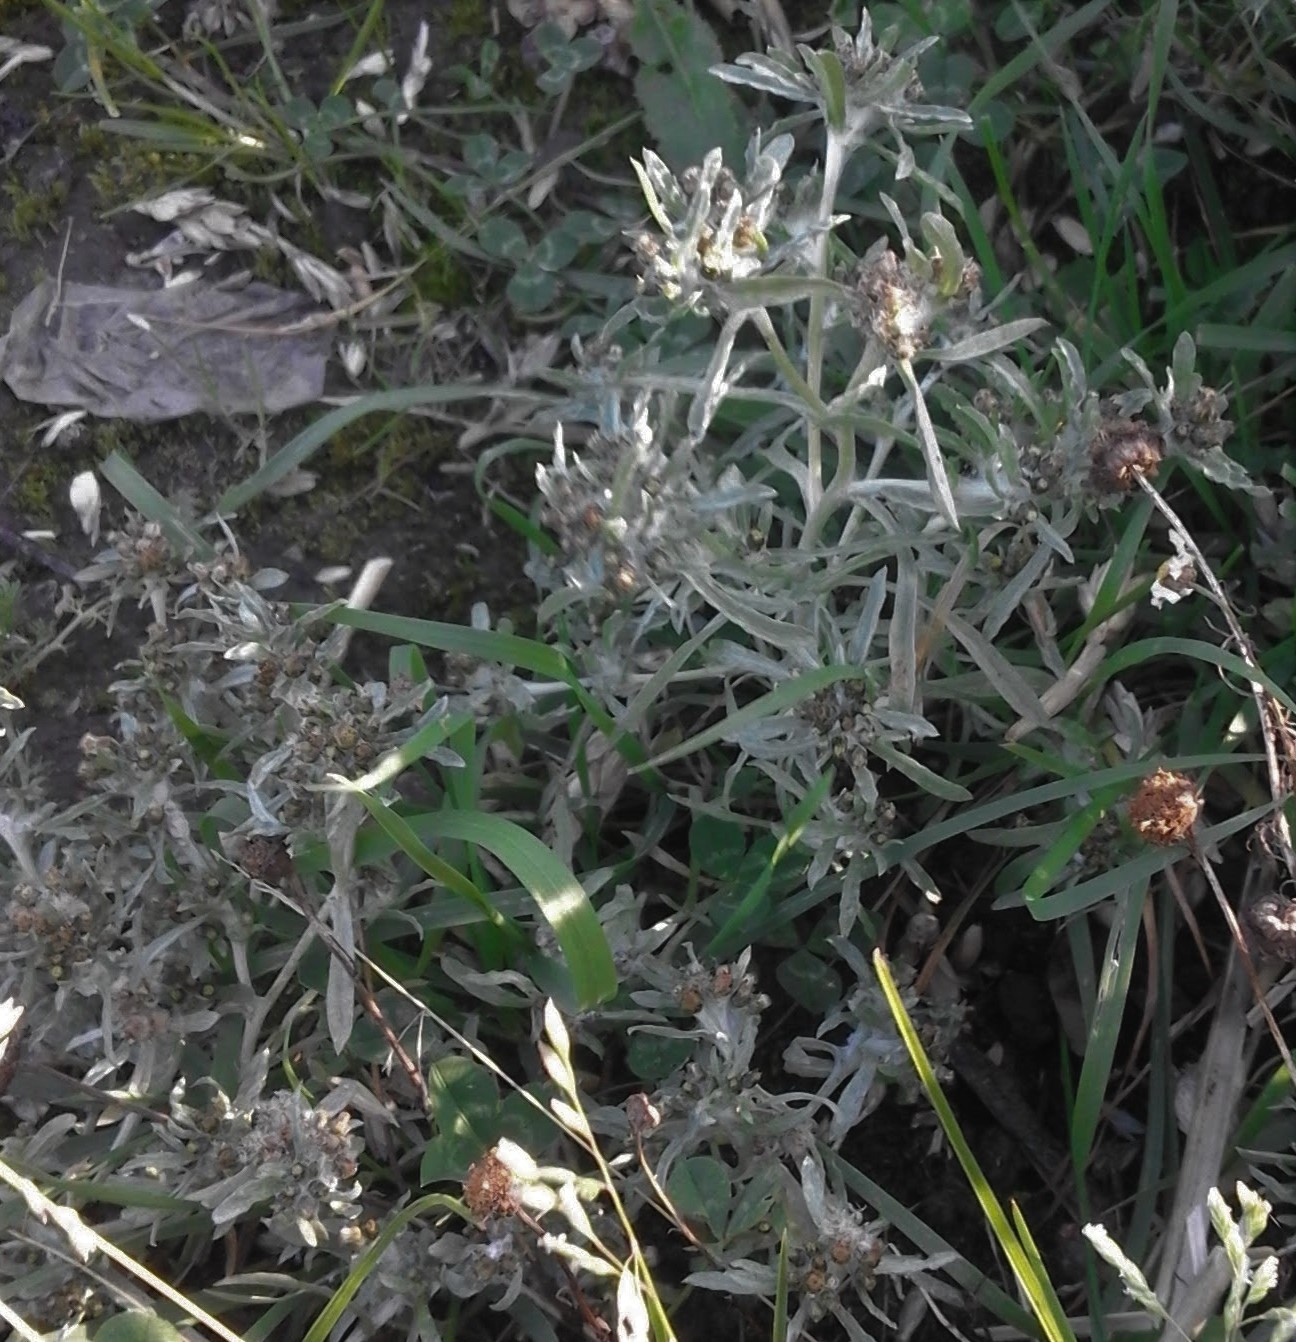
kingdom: Plantae
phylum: Tracheophyta
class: Magnoliopsida
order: Asterales
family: Asteraceae
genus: Gnaphalium
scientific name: Gnaphalium uliginosum
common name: Marsh cudweed
